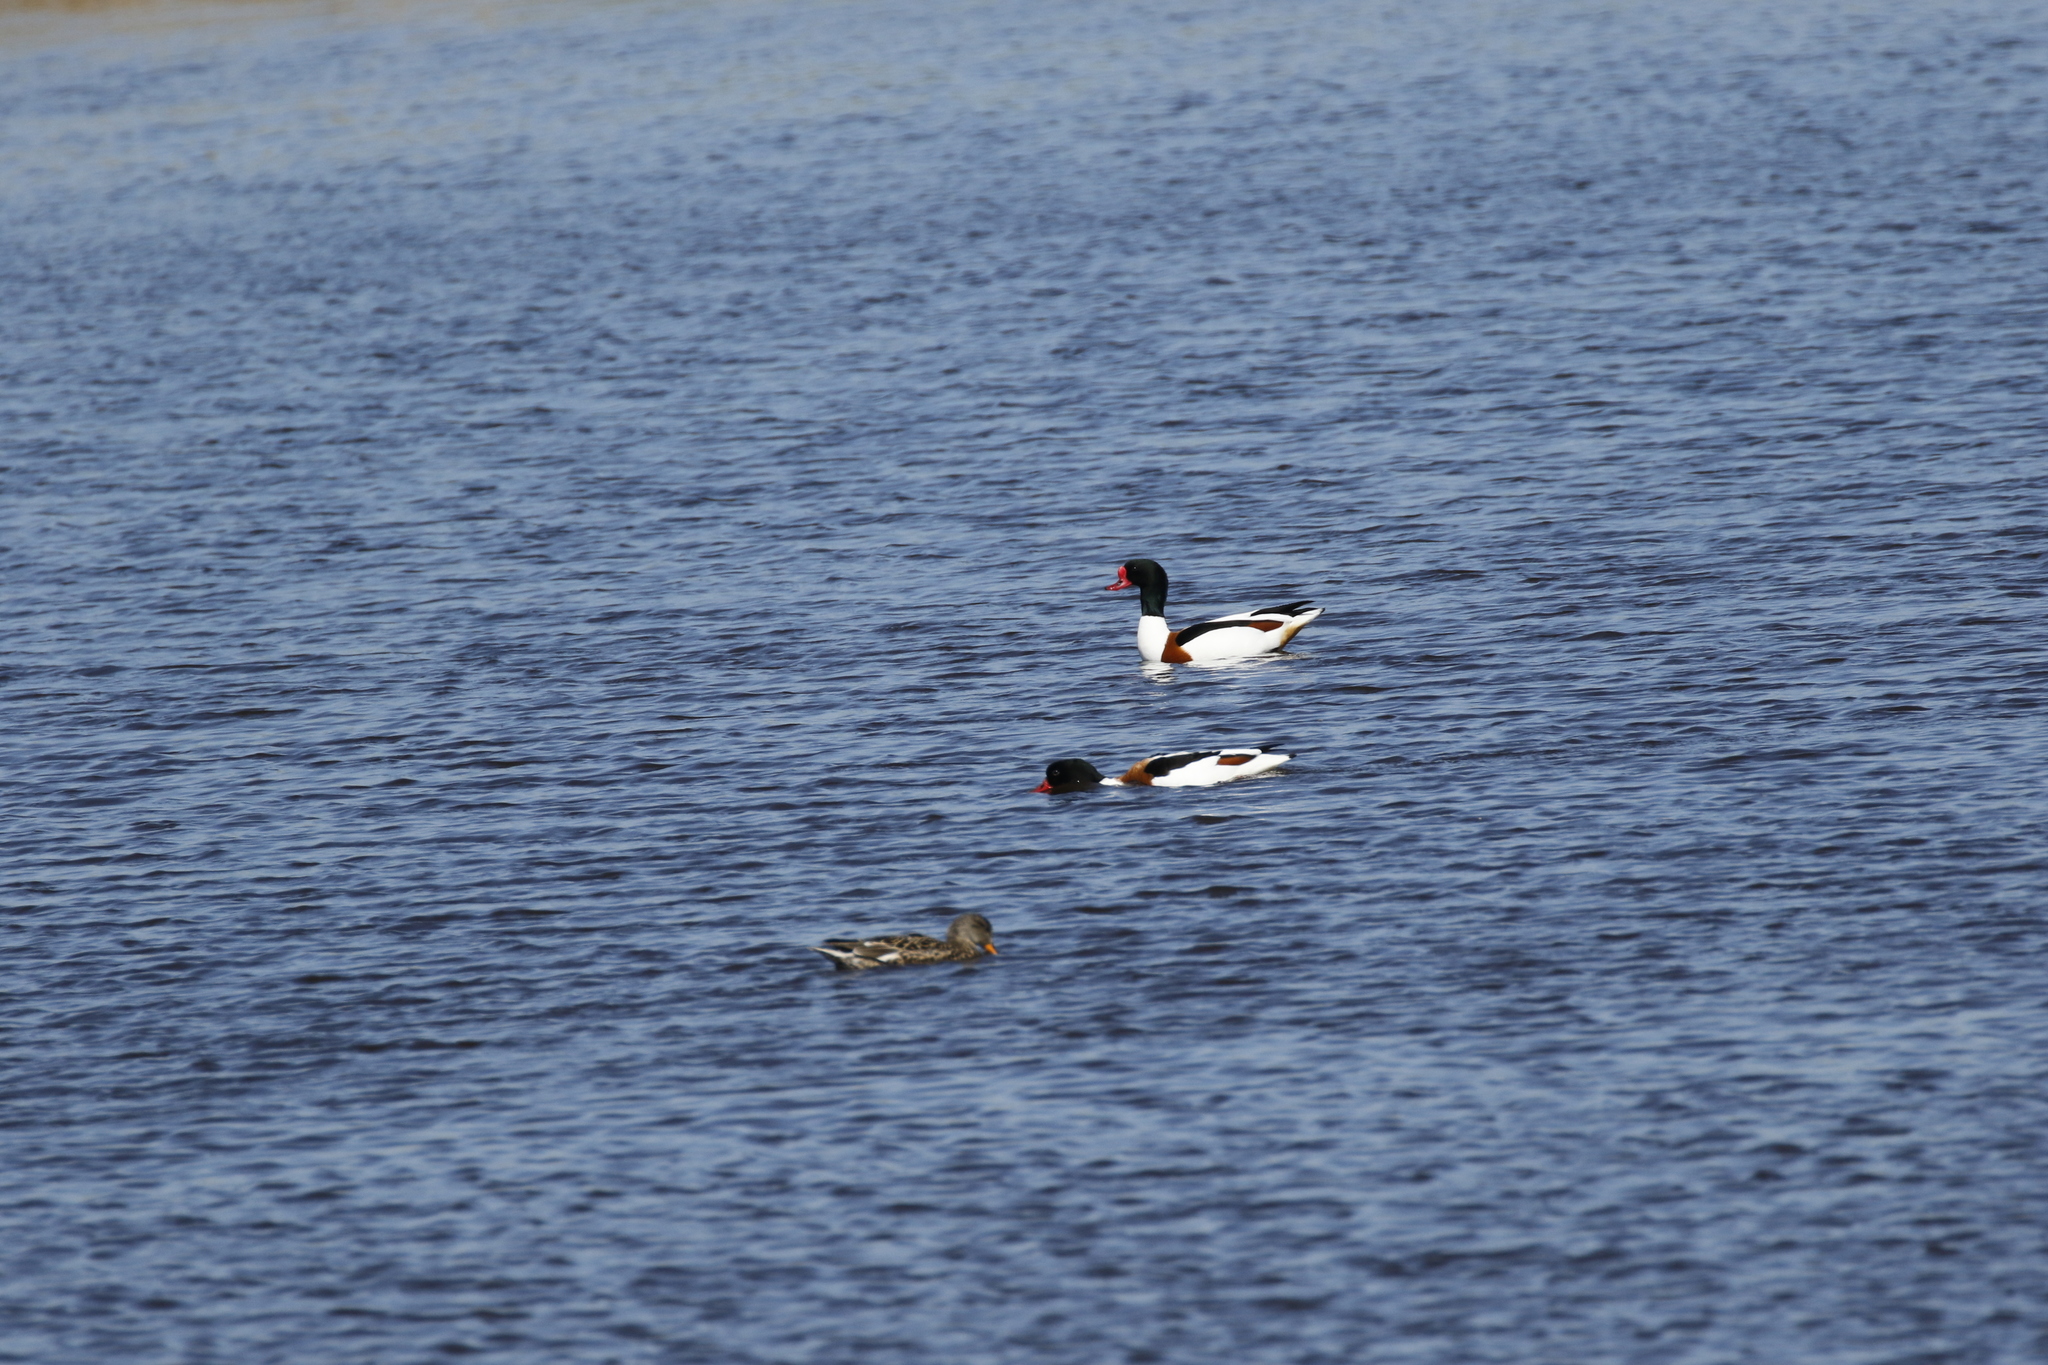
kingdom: Animalia
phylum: Chordata
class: Aves
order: Anseriformes
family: Anatidae
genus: Tadorna
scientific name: Tadorna tadorna
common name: Common shelduck
